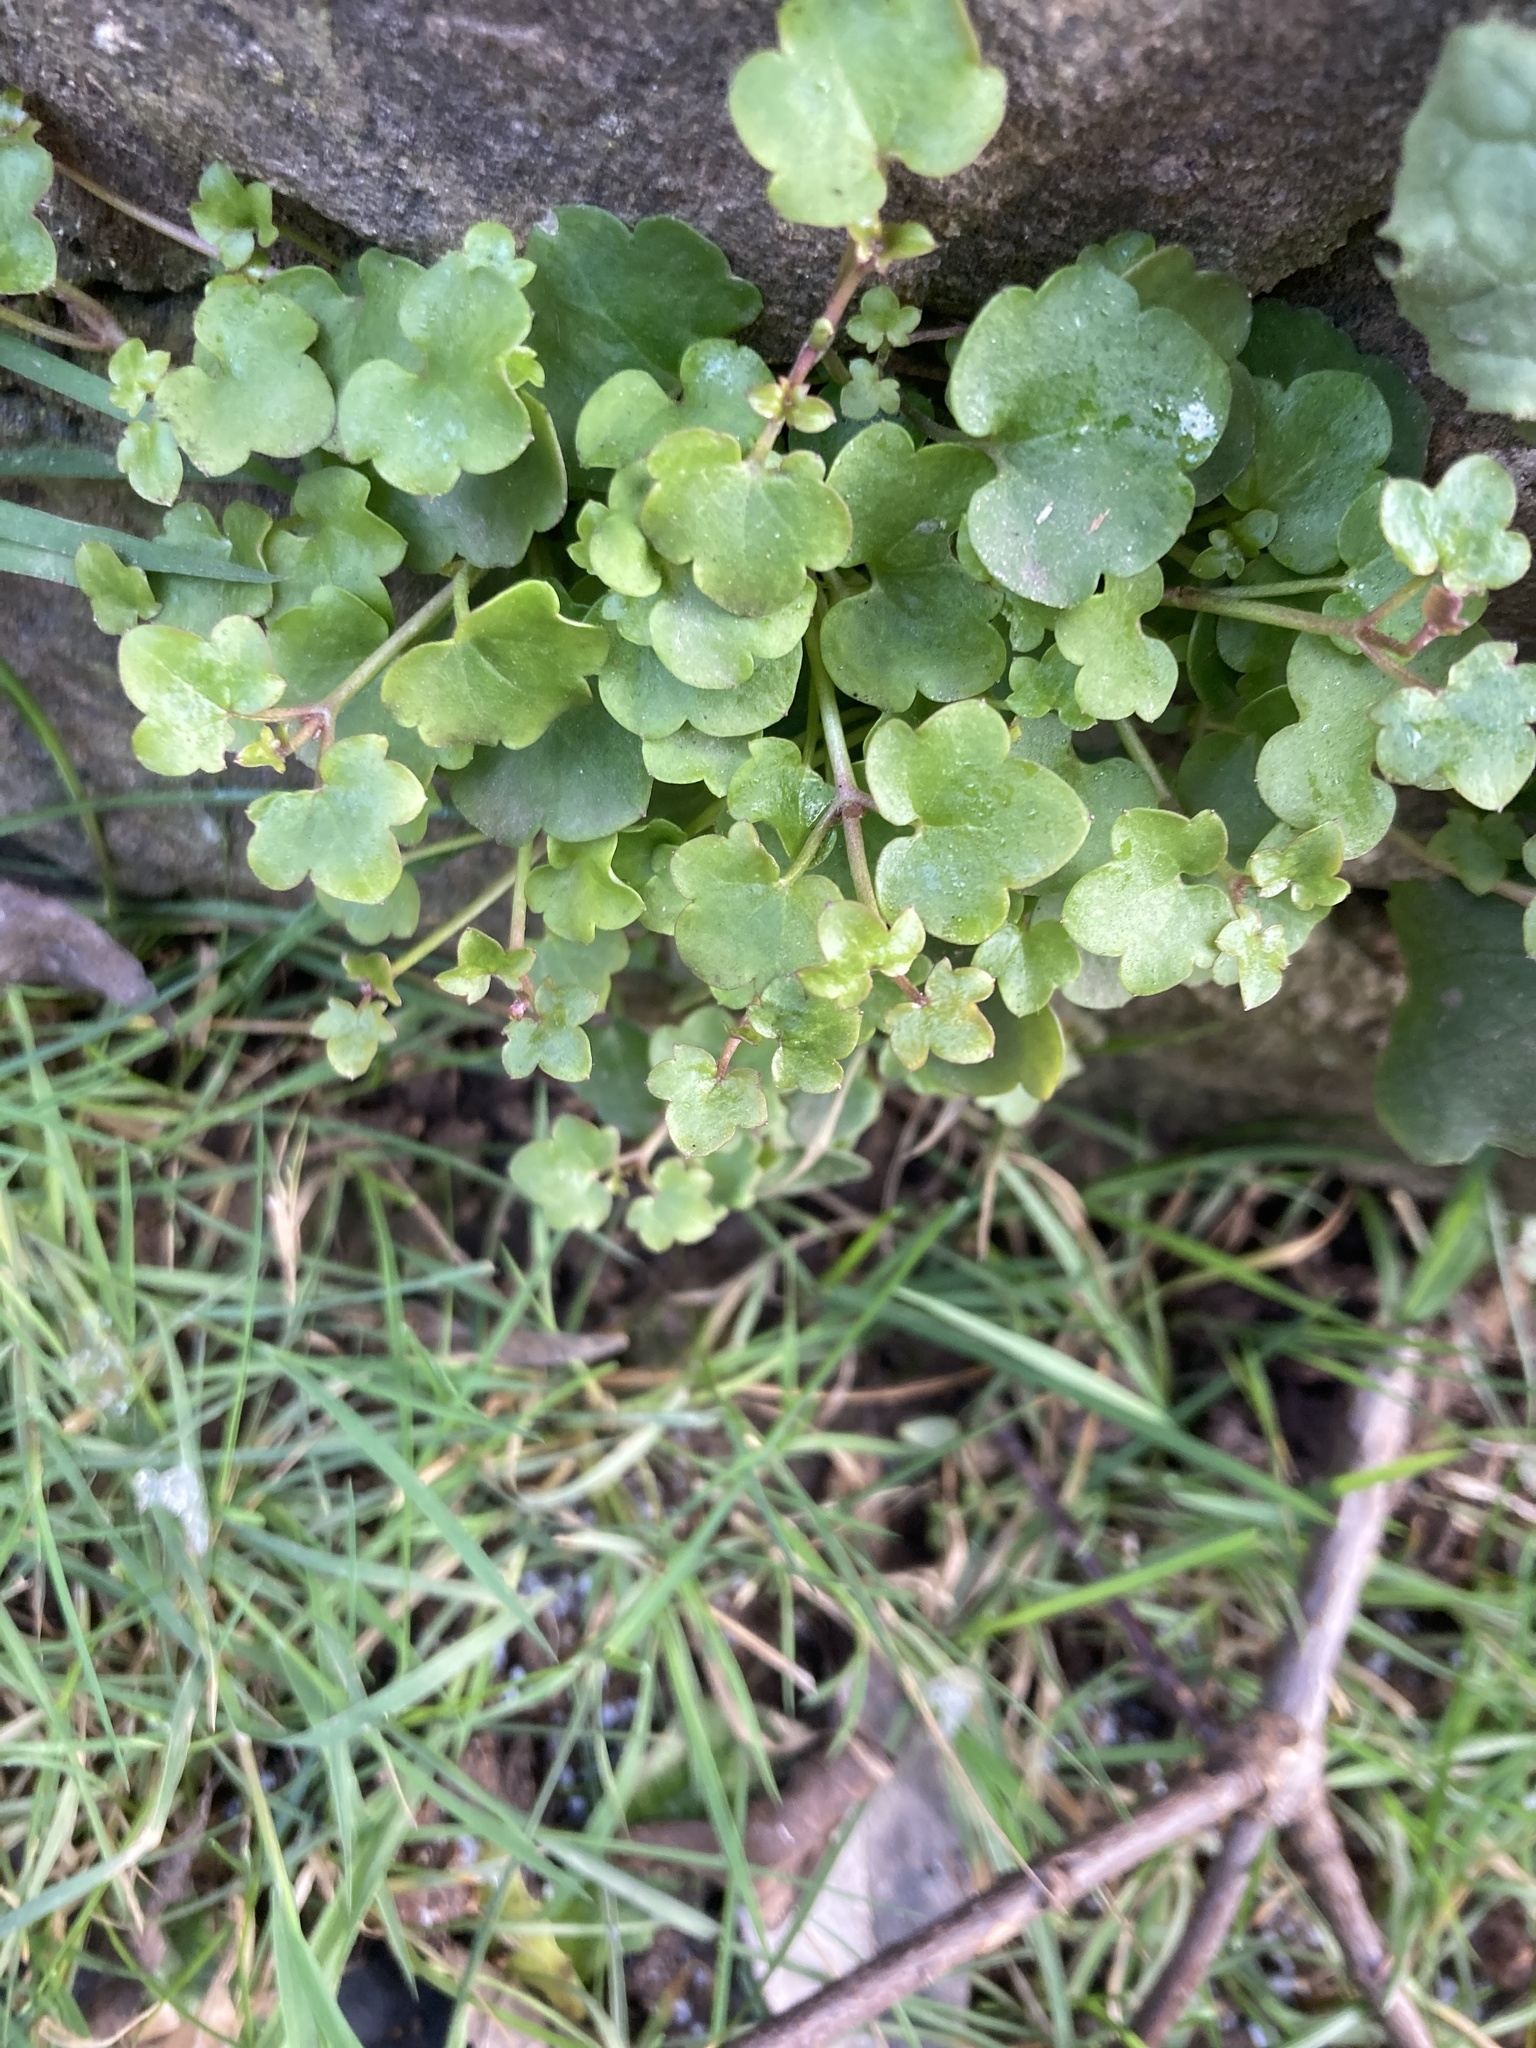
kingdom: Plantae
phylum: Tracheophyta
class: Magnoliopsida
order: Lamiales
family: Plantaginaceae
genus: Cymbalaria
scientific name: Cymbalaria muralis
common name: Ivy-leaved toadflax
